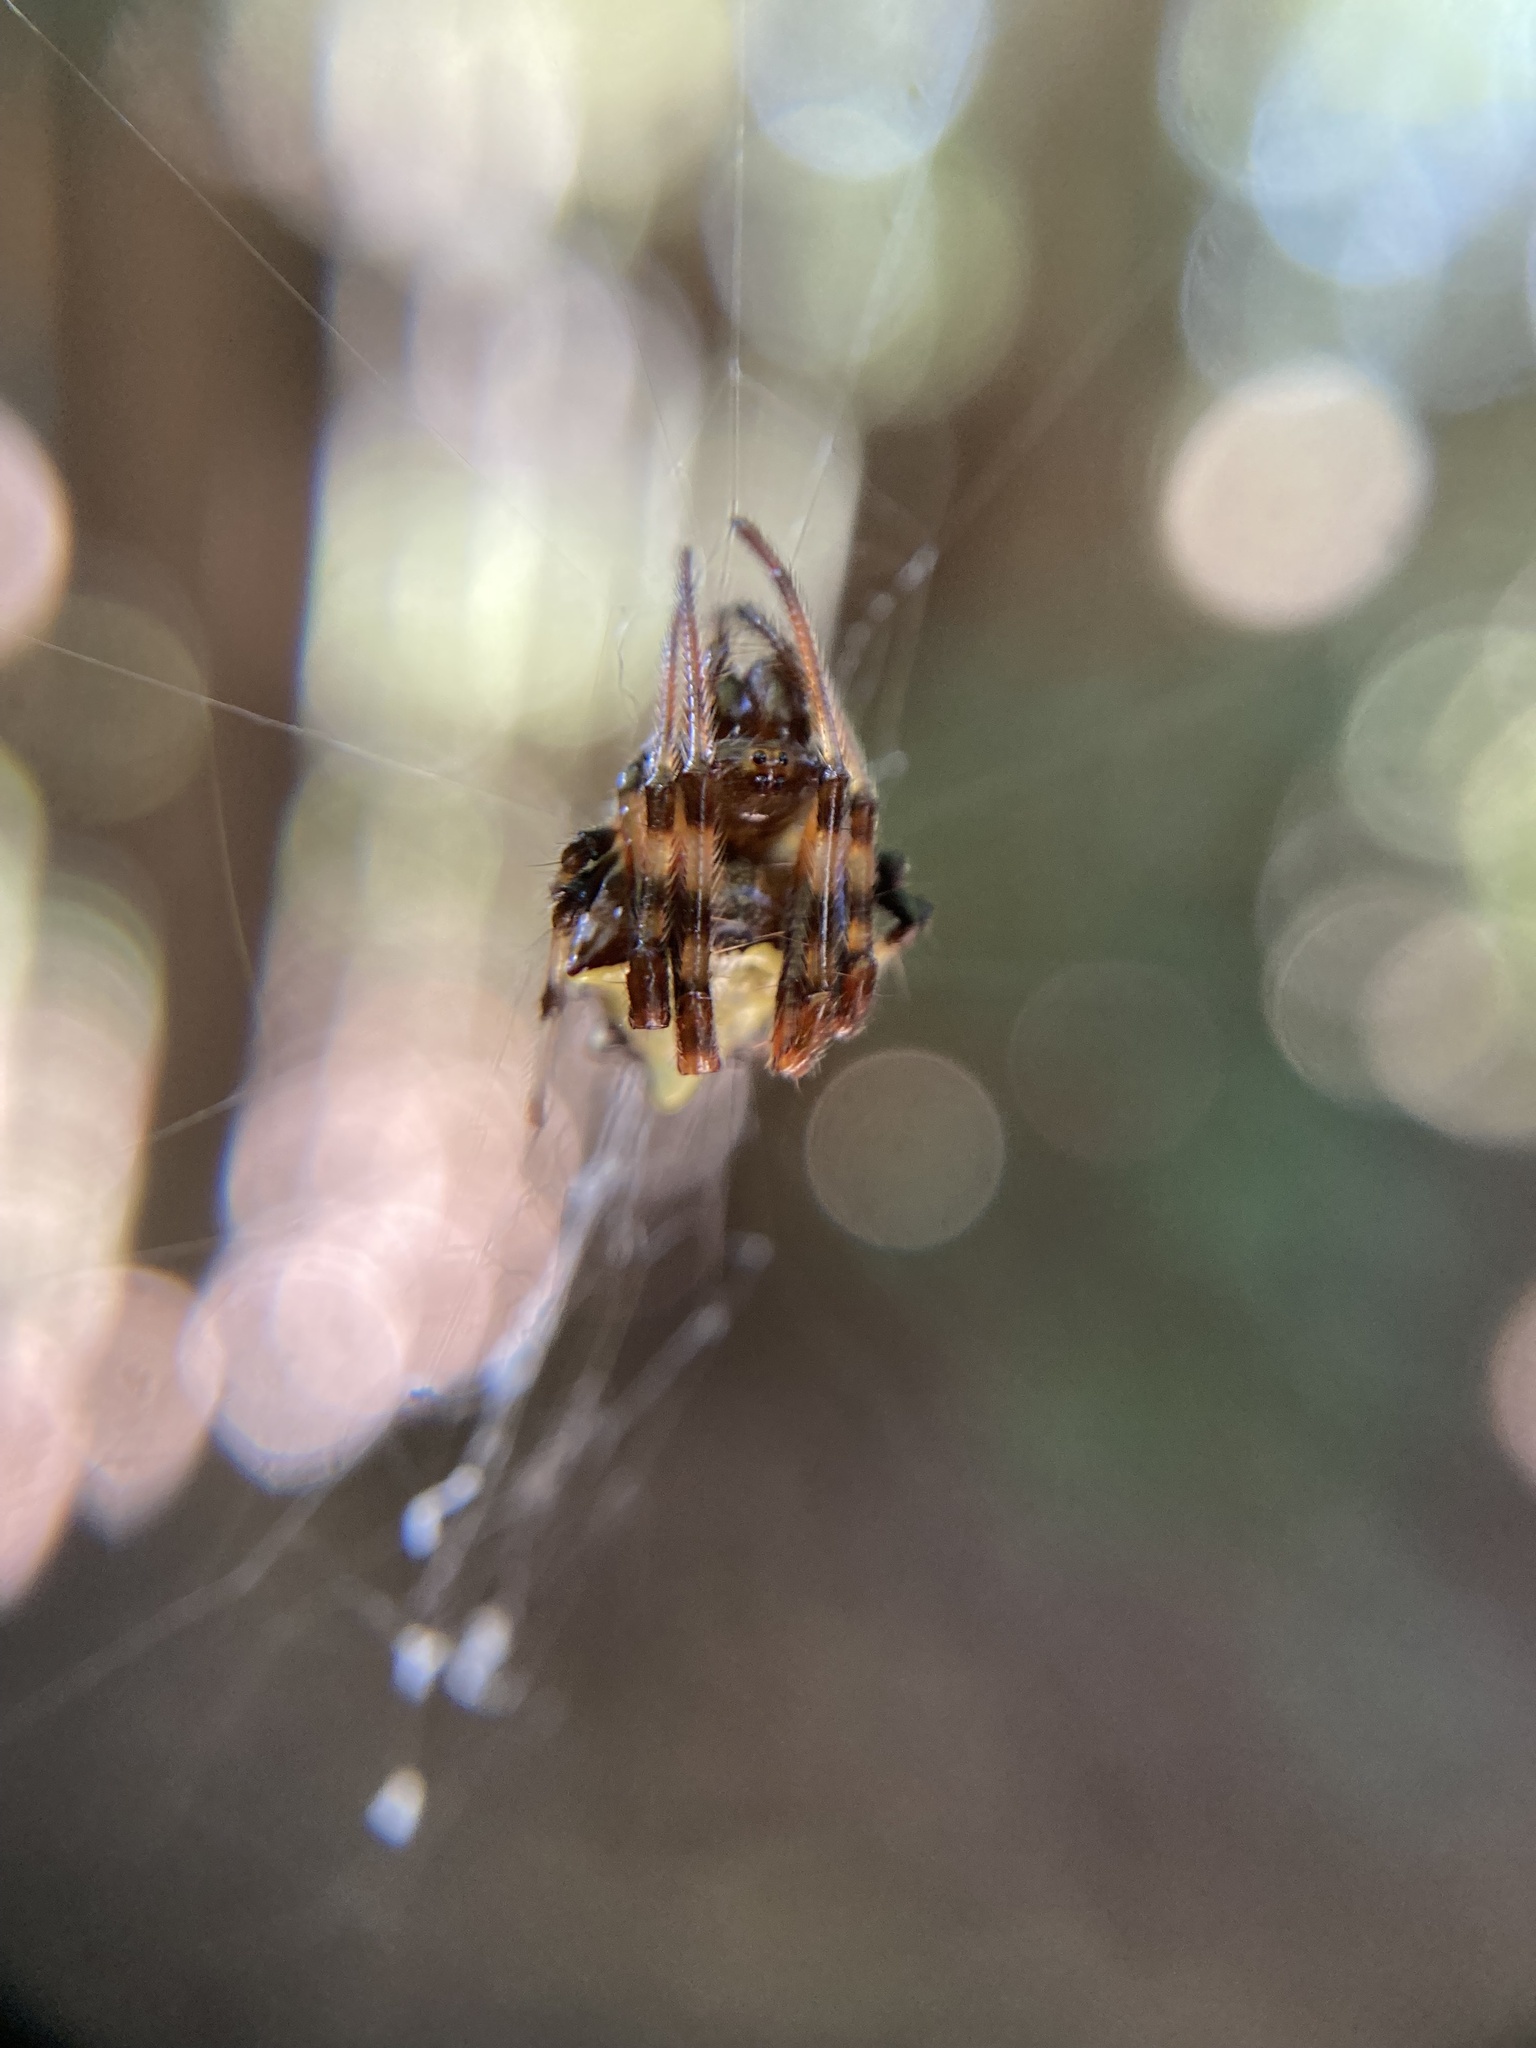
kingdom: Animalia
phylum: Arthropoda
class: Arachnida
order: Araneae
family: Araneidae
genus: Verrucosa
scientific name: Verrucosa arenata
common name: Orb weavers
